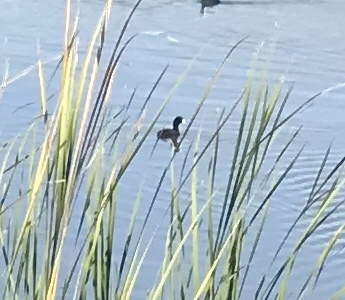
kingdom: Animalia
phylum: Chordata
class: Aves
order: Gruiformes
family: Rallidae
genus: Fulica
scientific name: Fulica americana
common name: American coot
